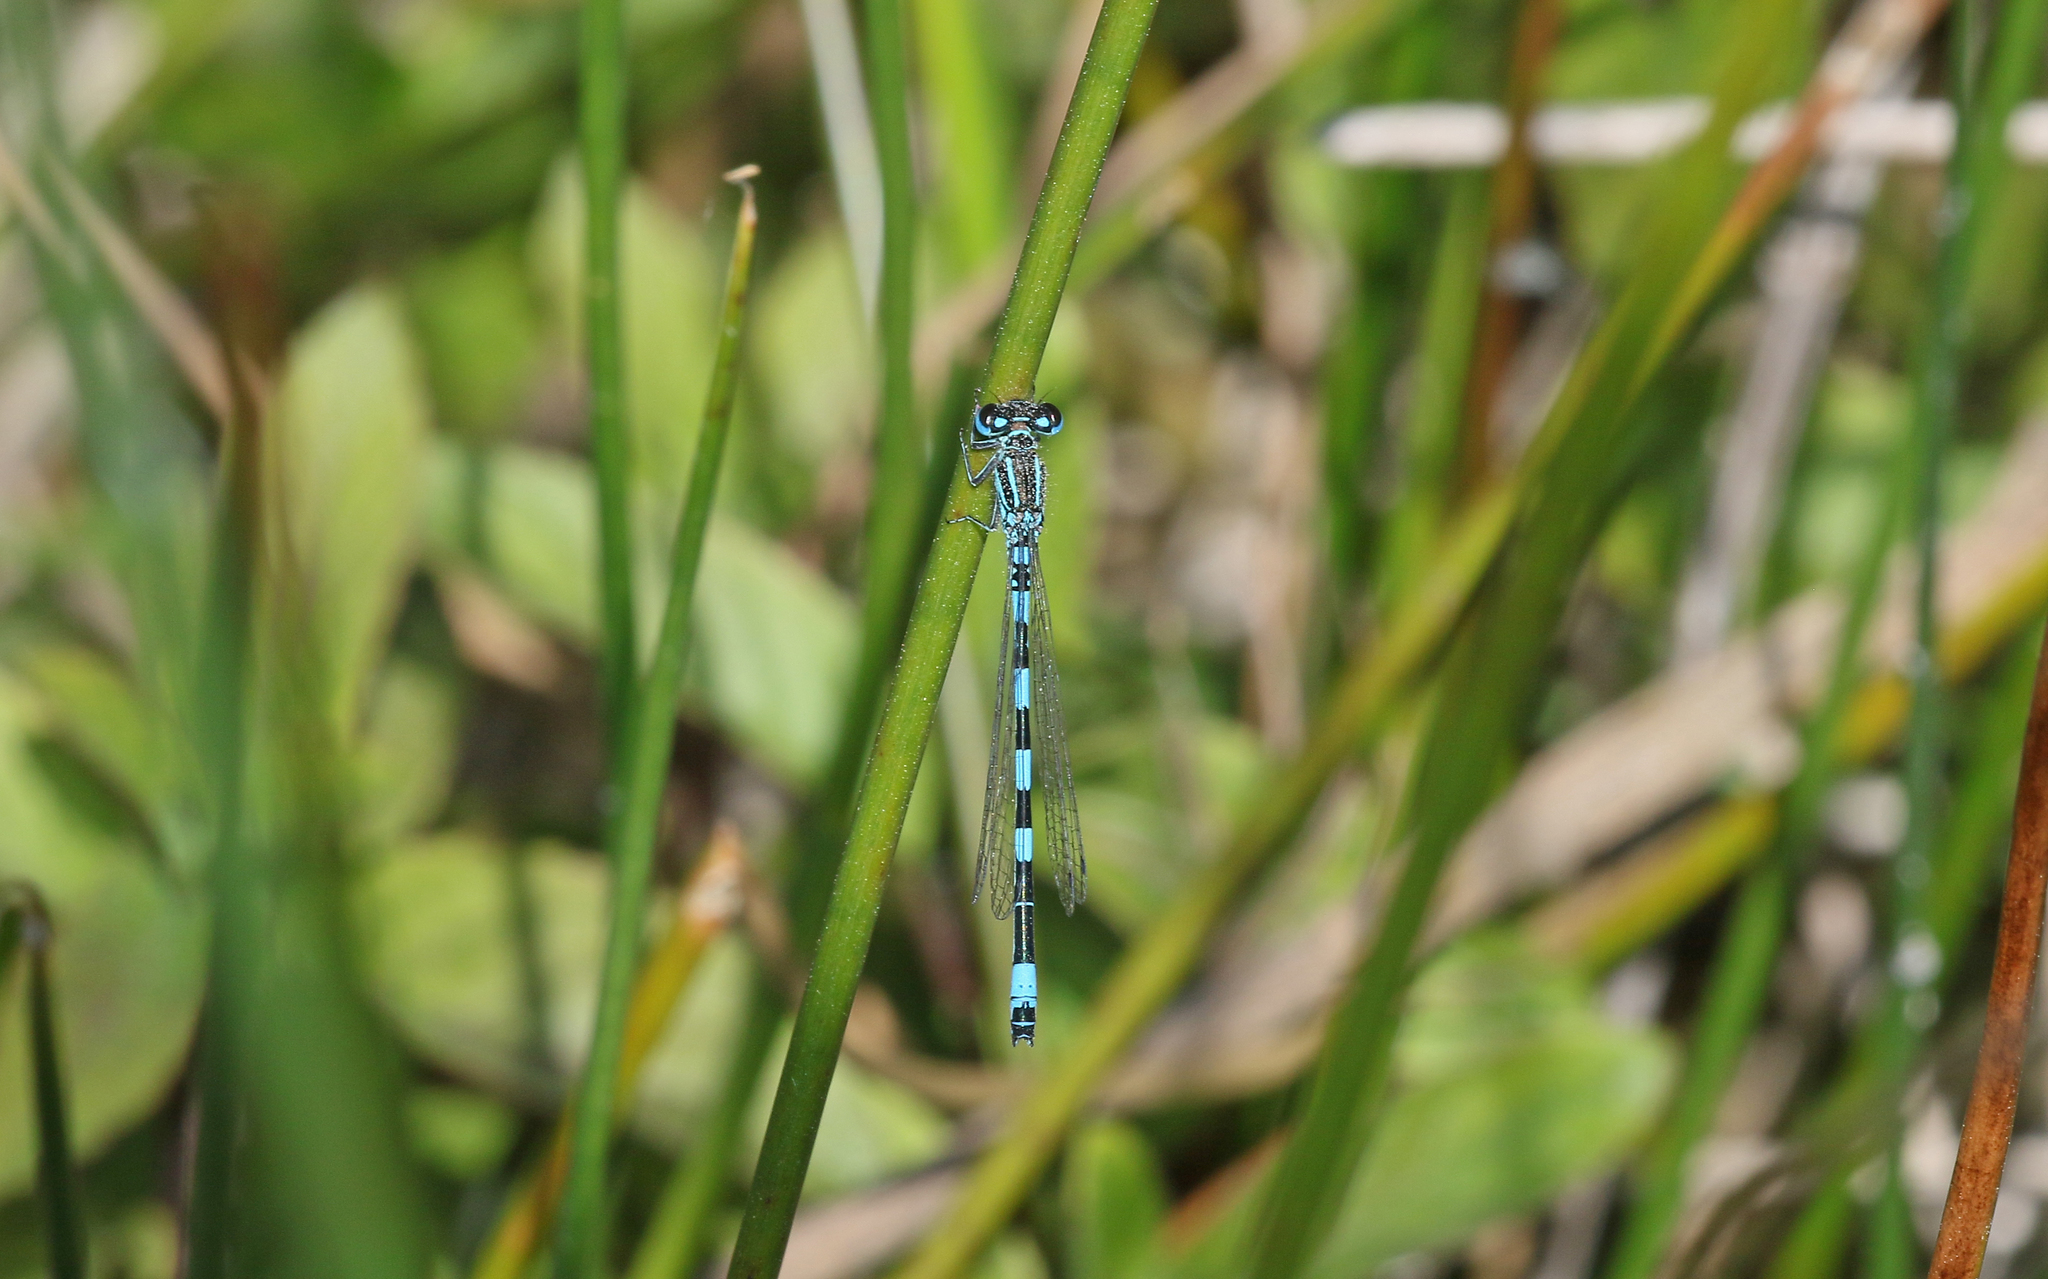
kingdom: Animalia
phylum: Arthropoda
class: Insecta
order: Odonata
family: Coenagrionidae
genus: Coenagrion
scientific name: Coenagrion mercuriale
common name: Southern damselfly
